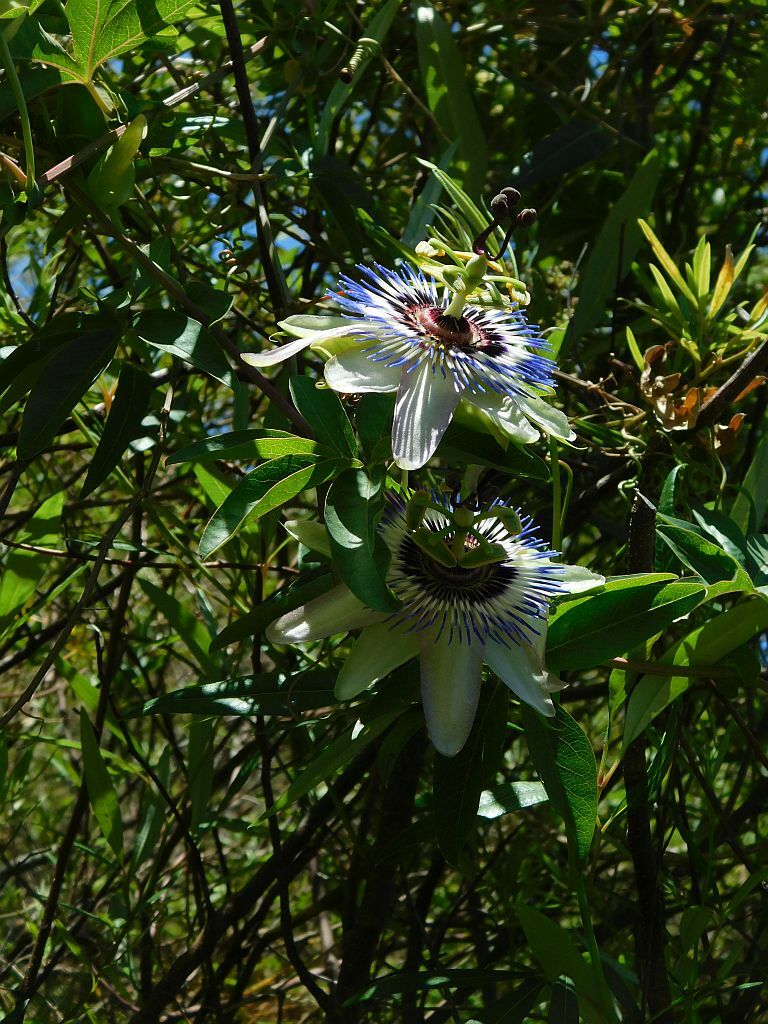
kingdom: Plantae
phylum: Tracheophyta
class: Magnoliopsida
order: Malpighiales
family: Passifloraceae
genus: Passiflora
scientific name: Passiflora caerulea
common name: Blue passionflower
